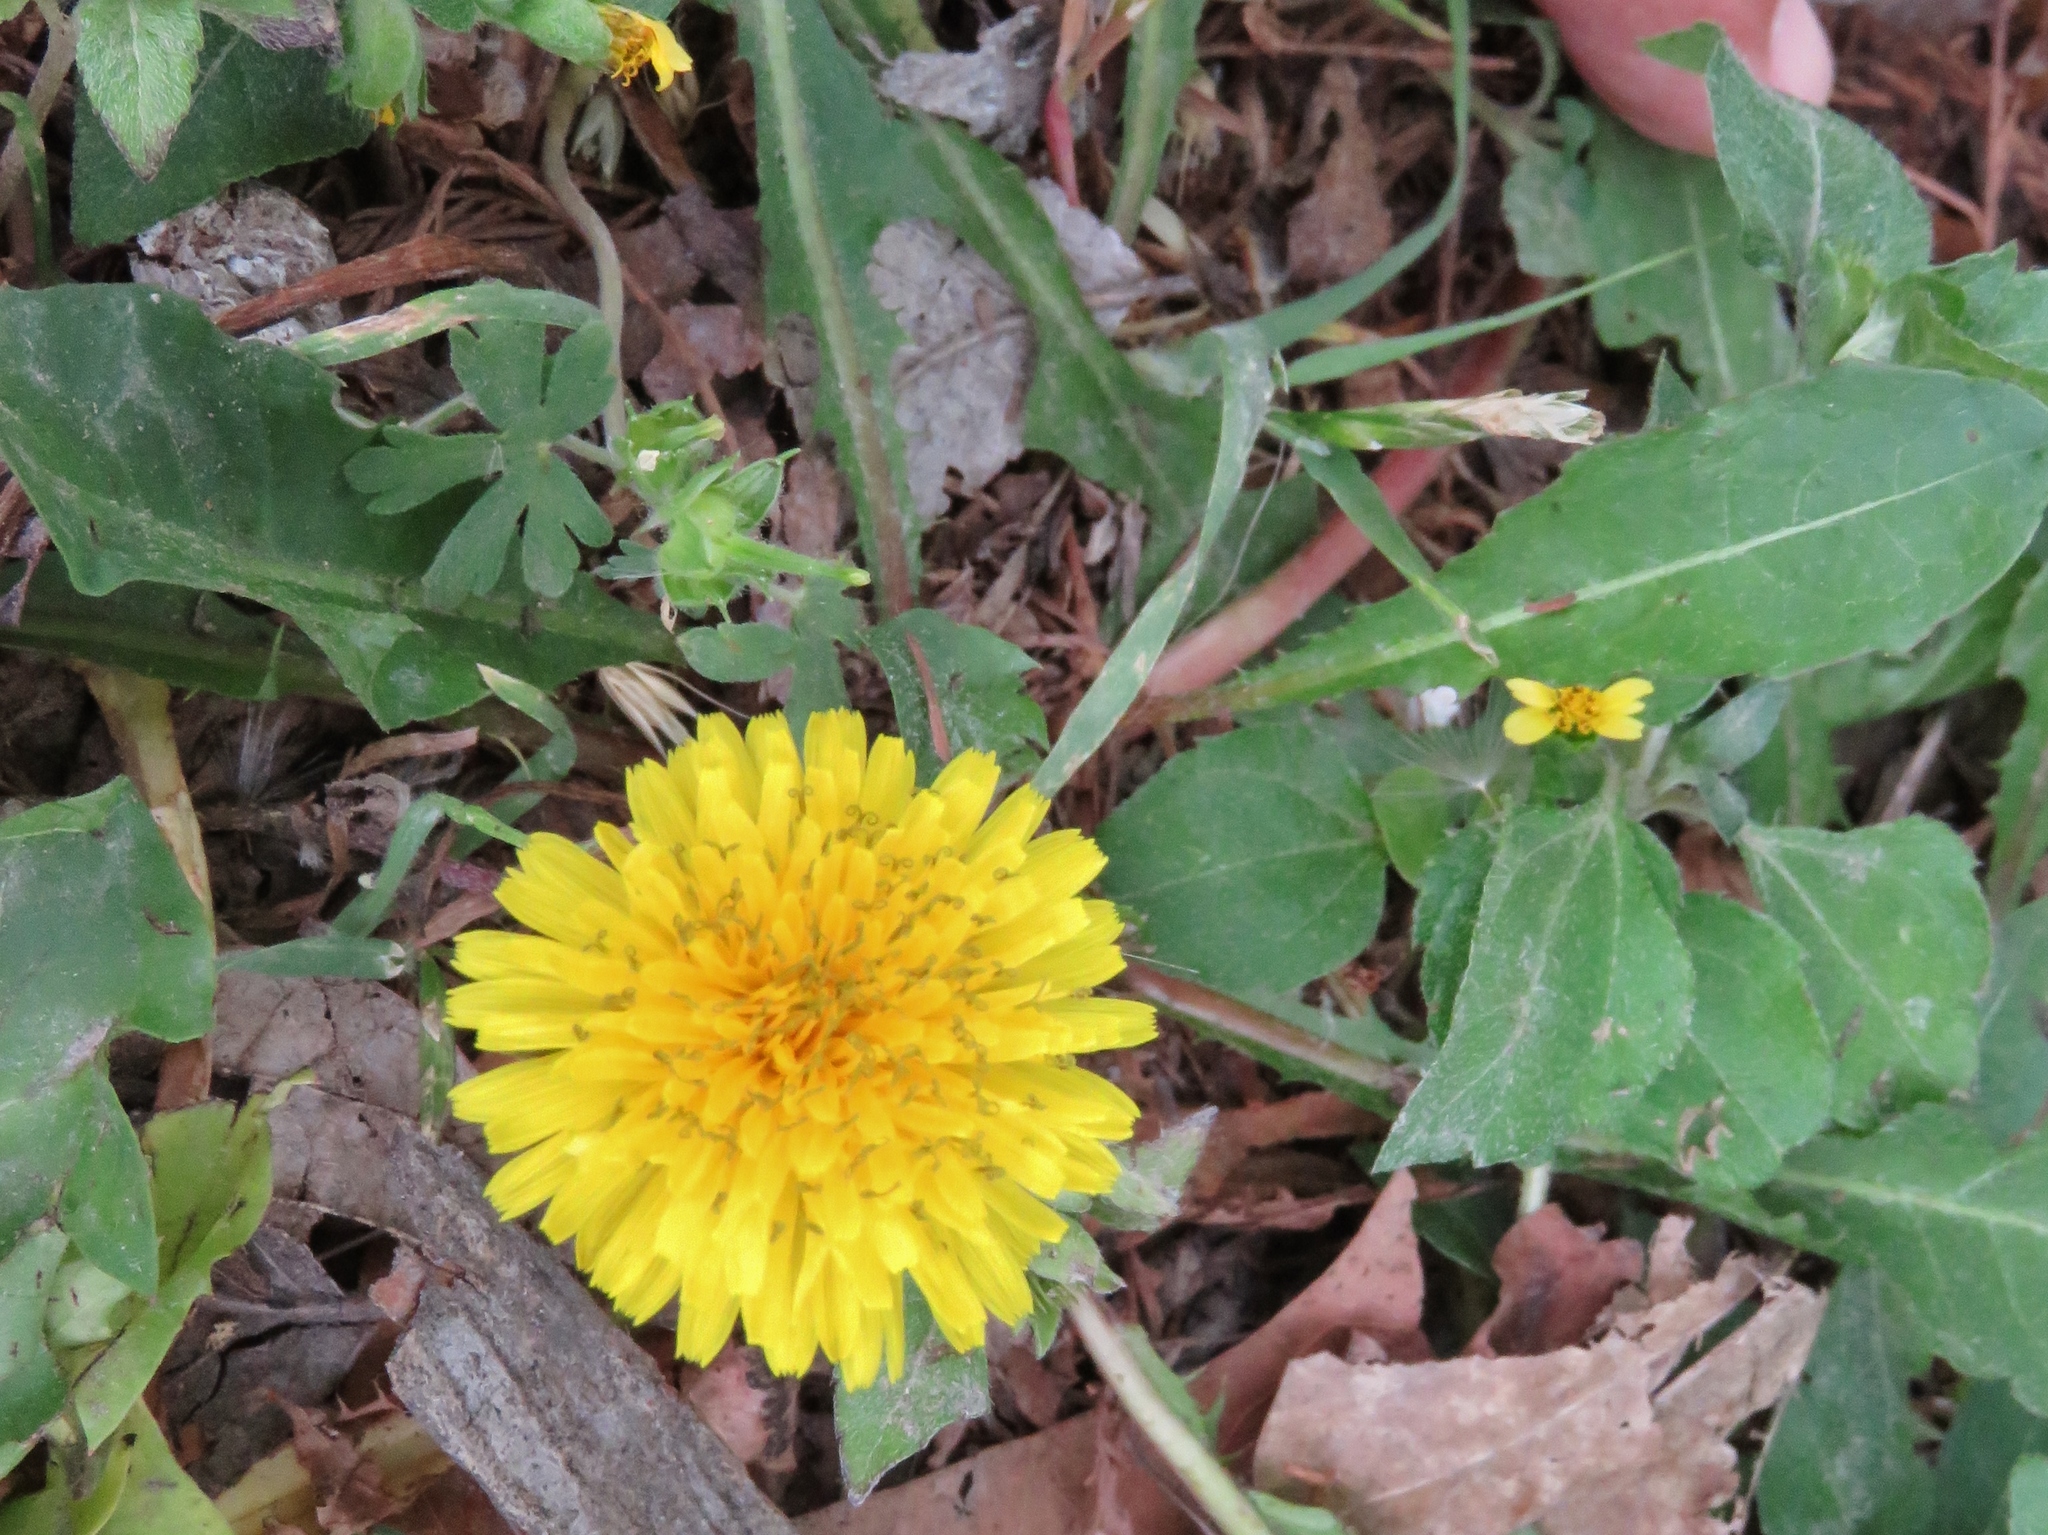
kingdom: Plantae
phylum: Tracheophyta
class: Magnoliopsida
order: Asterales
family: Asteraceae
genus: Taraxacum
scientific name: Taraxacum officinale
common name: Common dandelion
